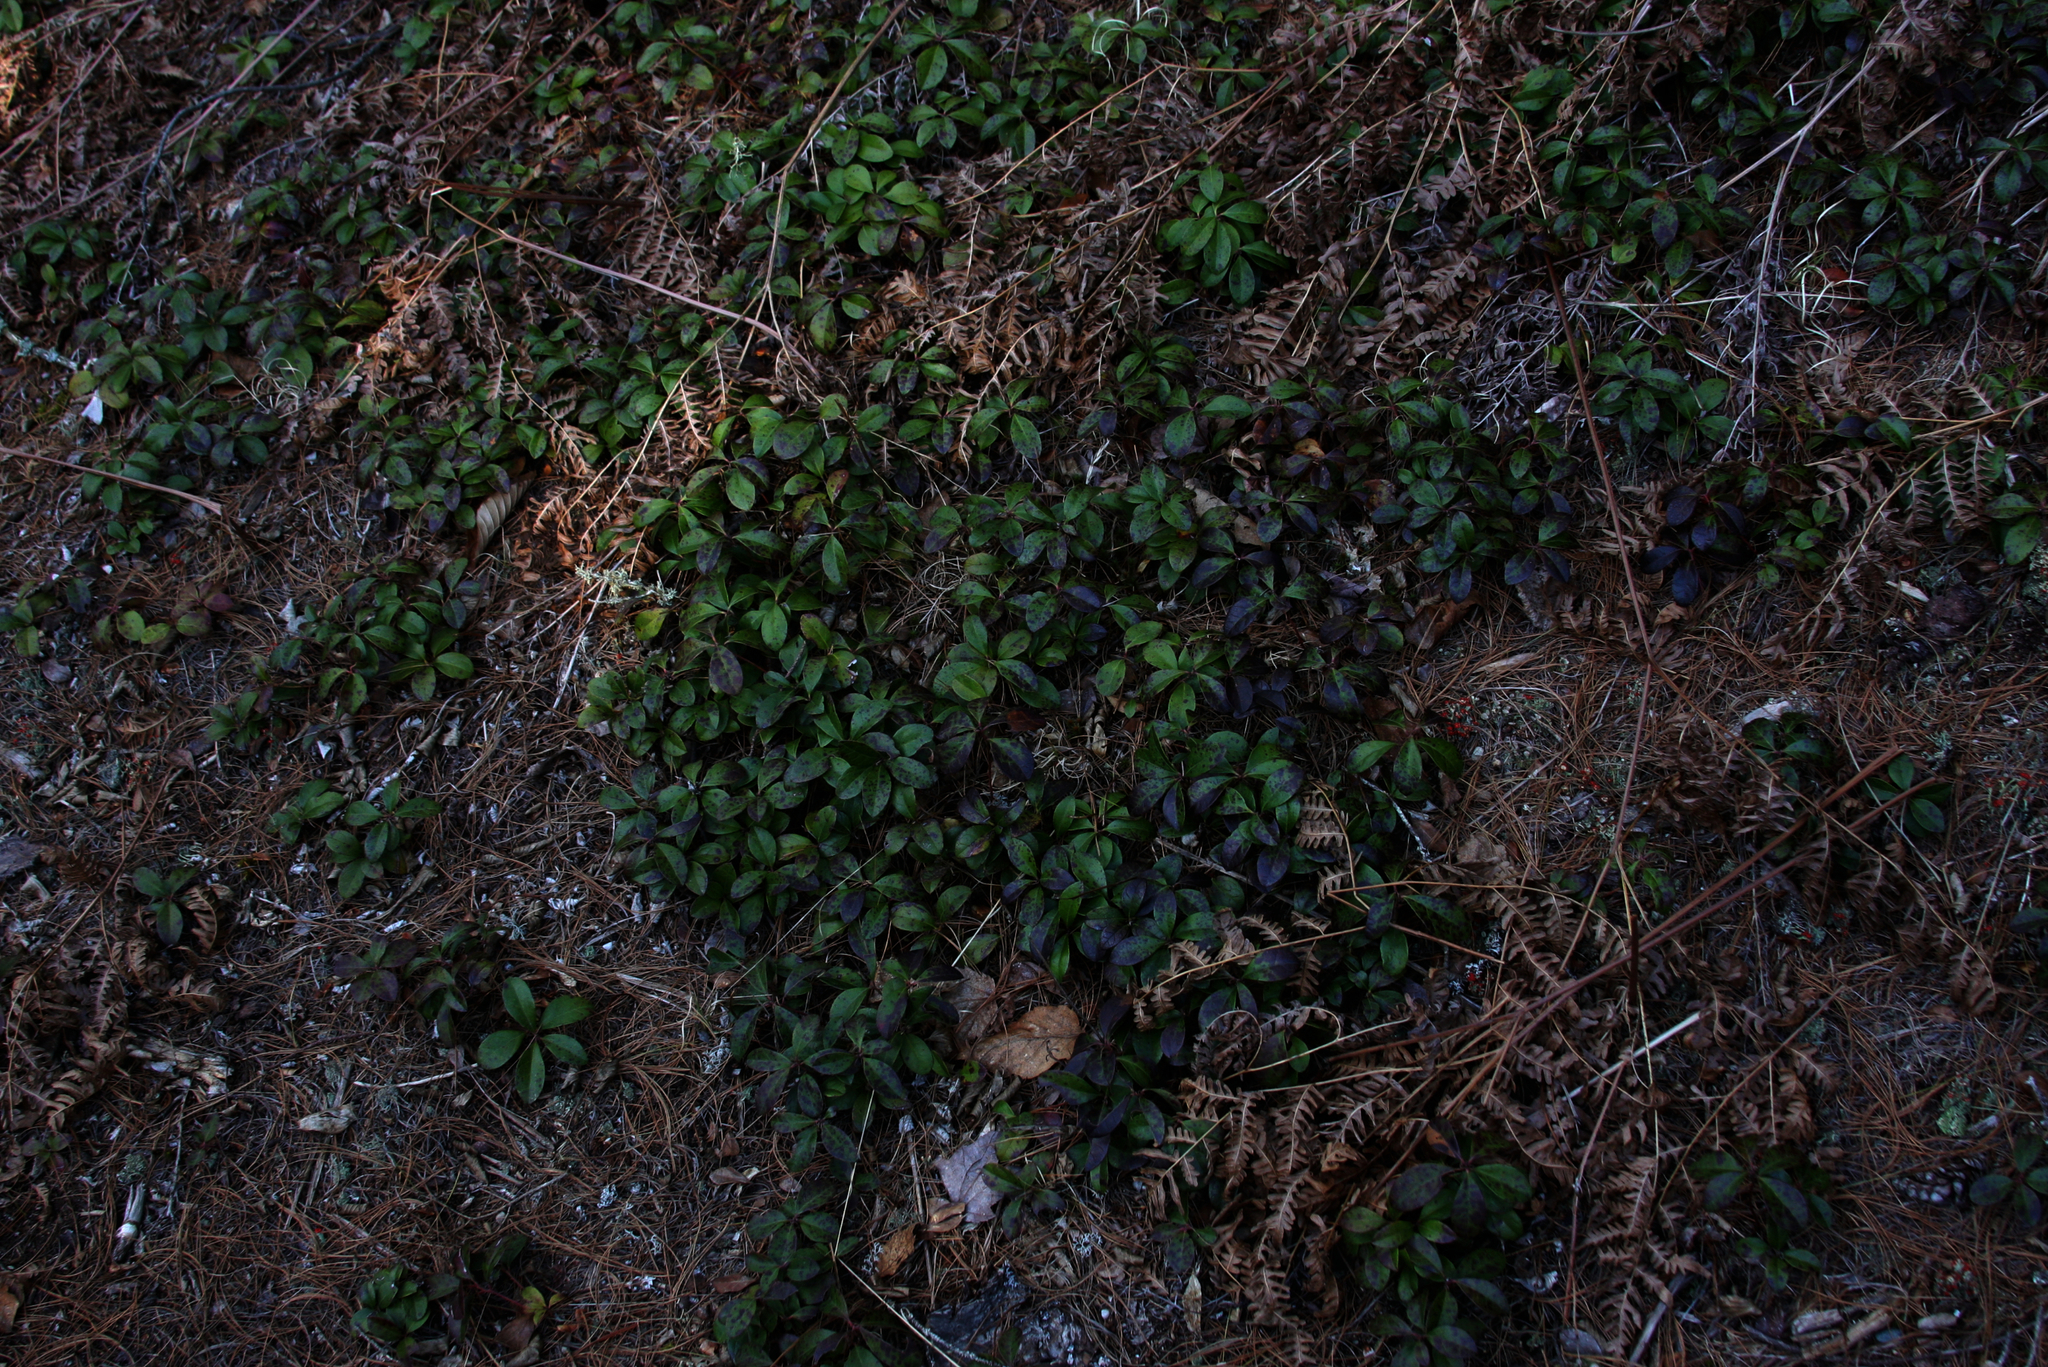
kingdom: Plantae
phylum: Tracheophyta
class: Magnoliopsida
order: Ericales
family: Ericaceae
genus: Gaultheria
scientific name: Gaultheria procumbens
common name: Checkerberry
